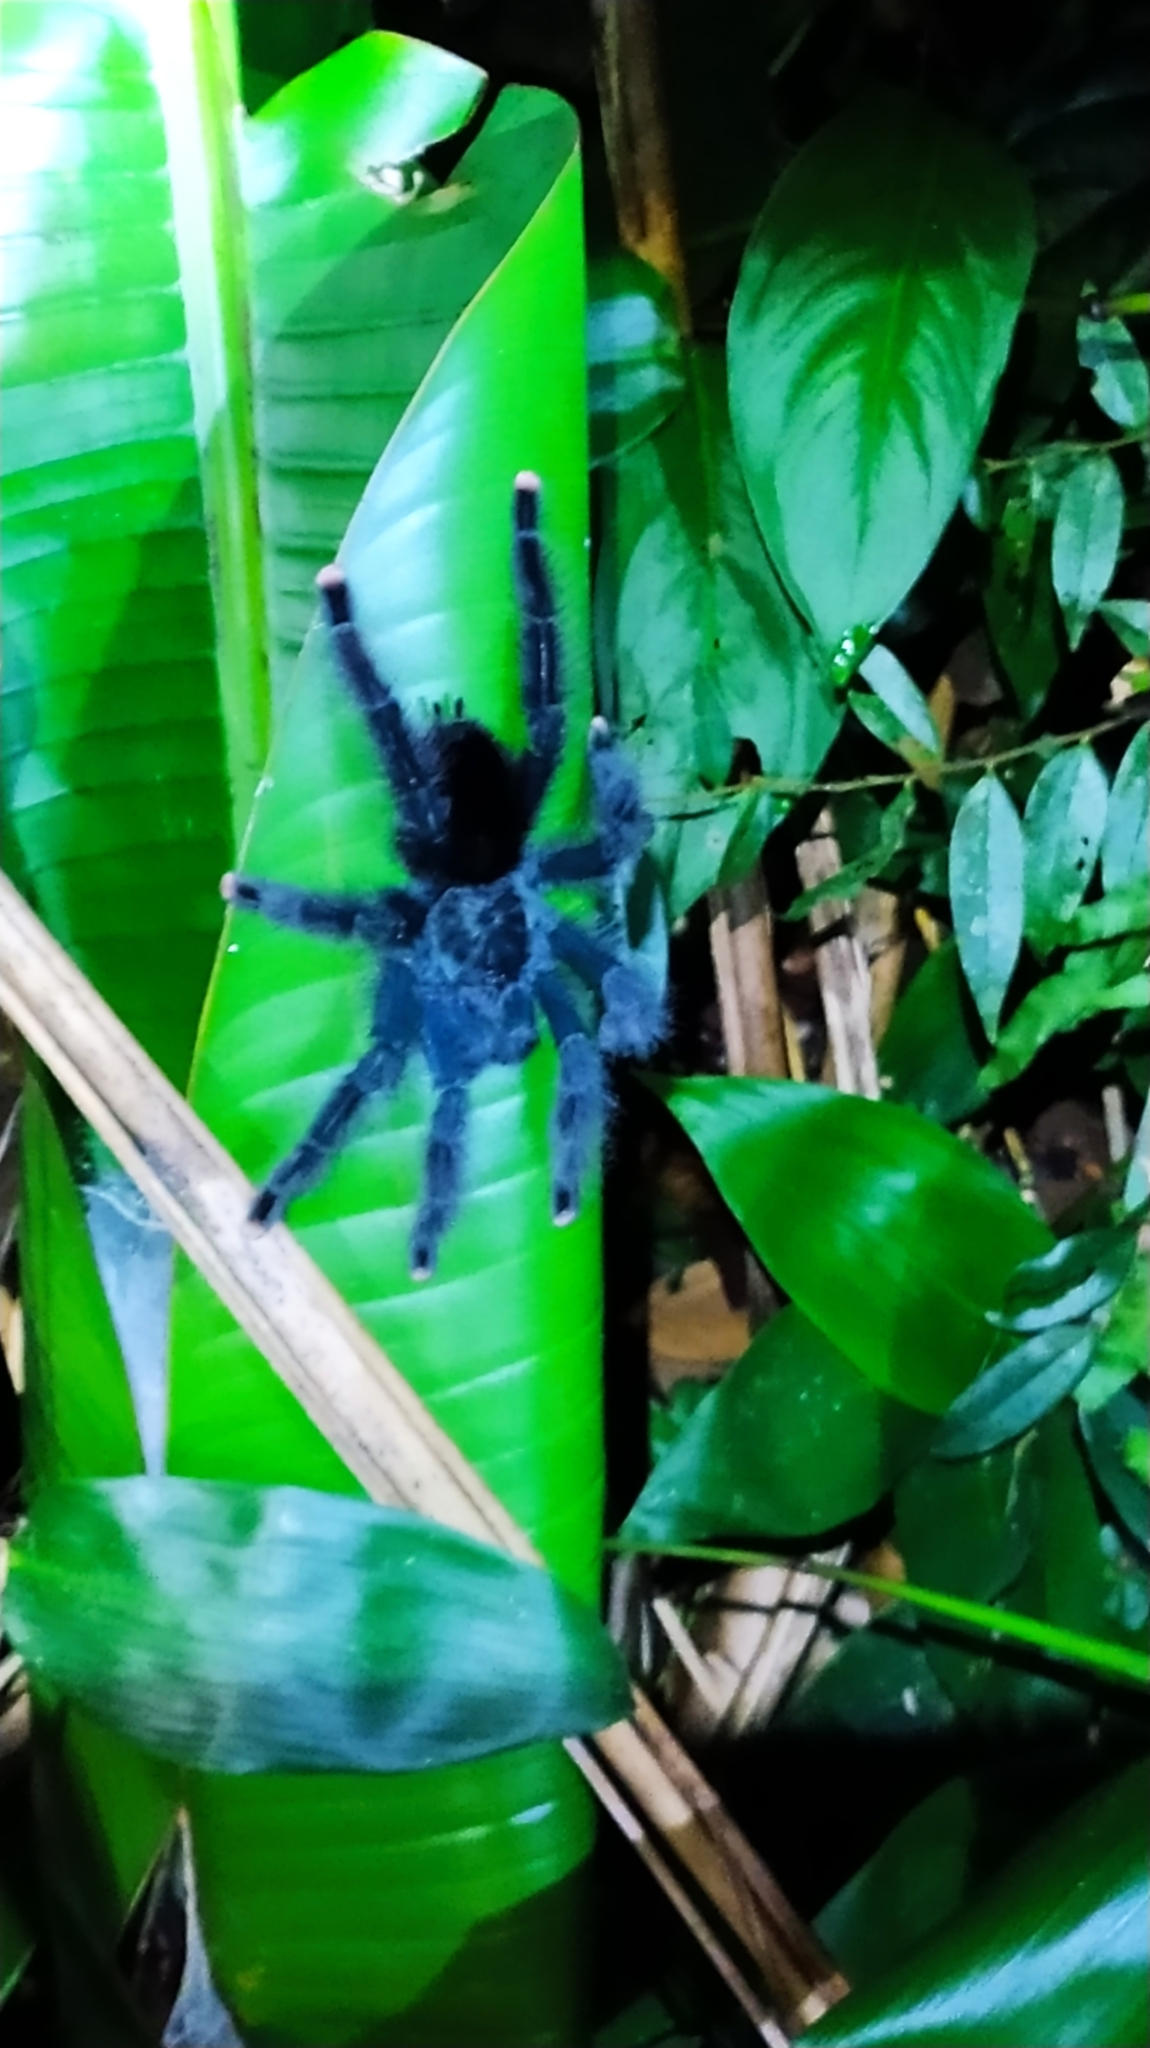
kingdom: Animalia
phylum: Arthropoda
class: Arachnida
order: Araneae
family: Theraphosidae
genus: Avicularia
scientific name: Avicularia avicularia
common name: Tarantula spiders
